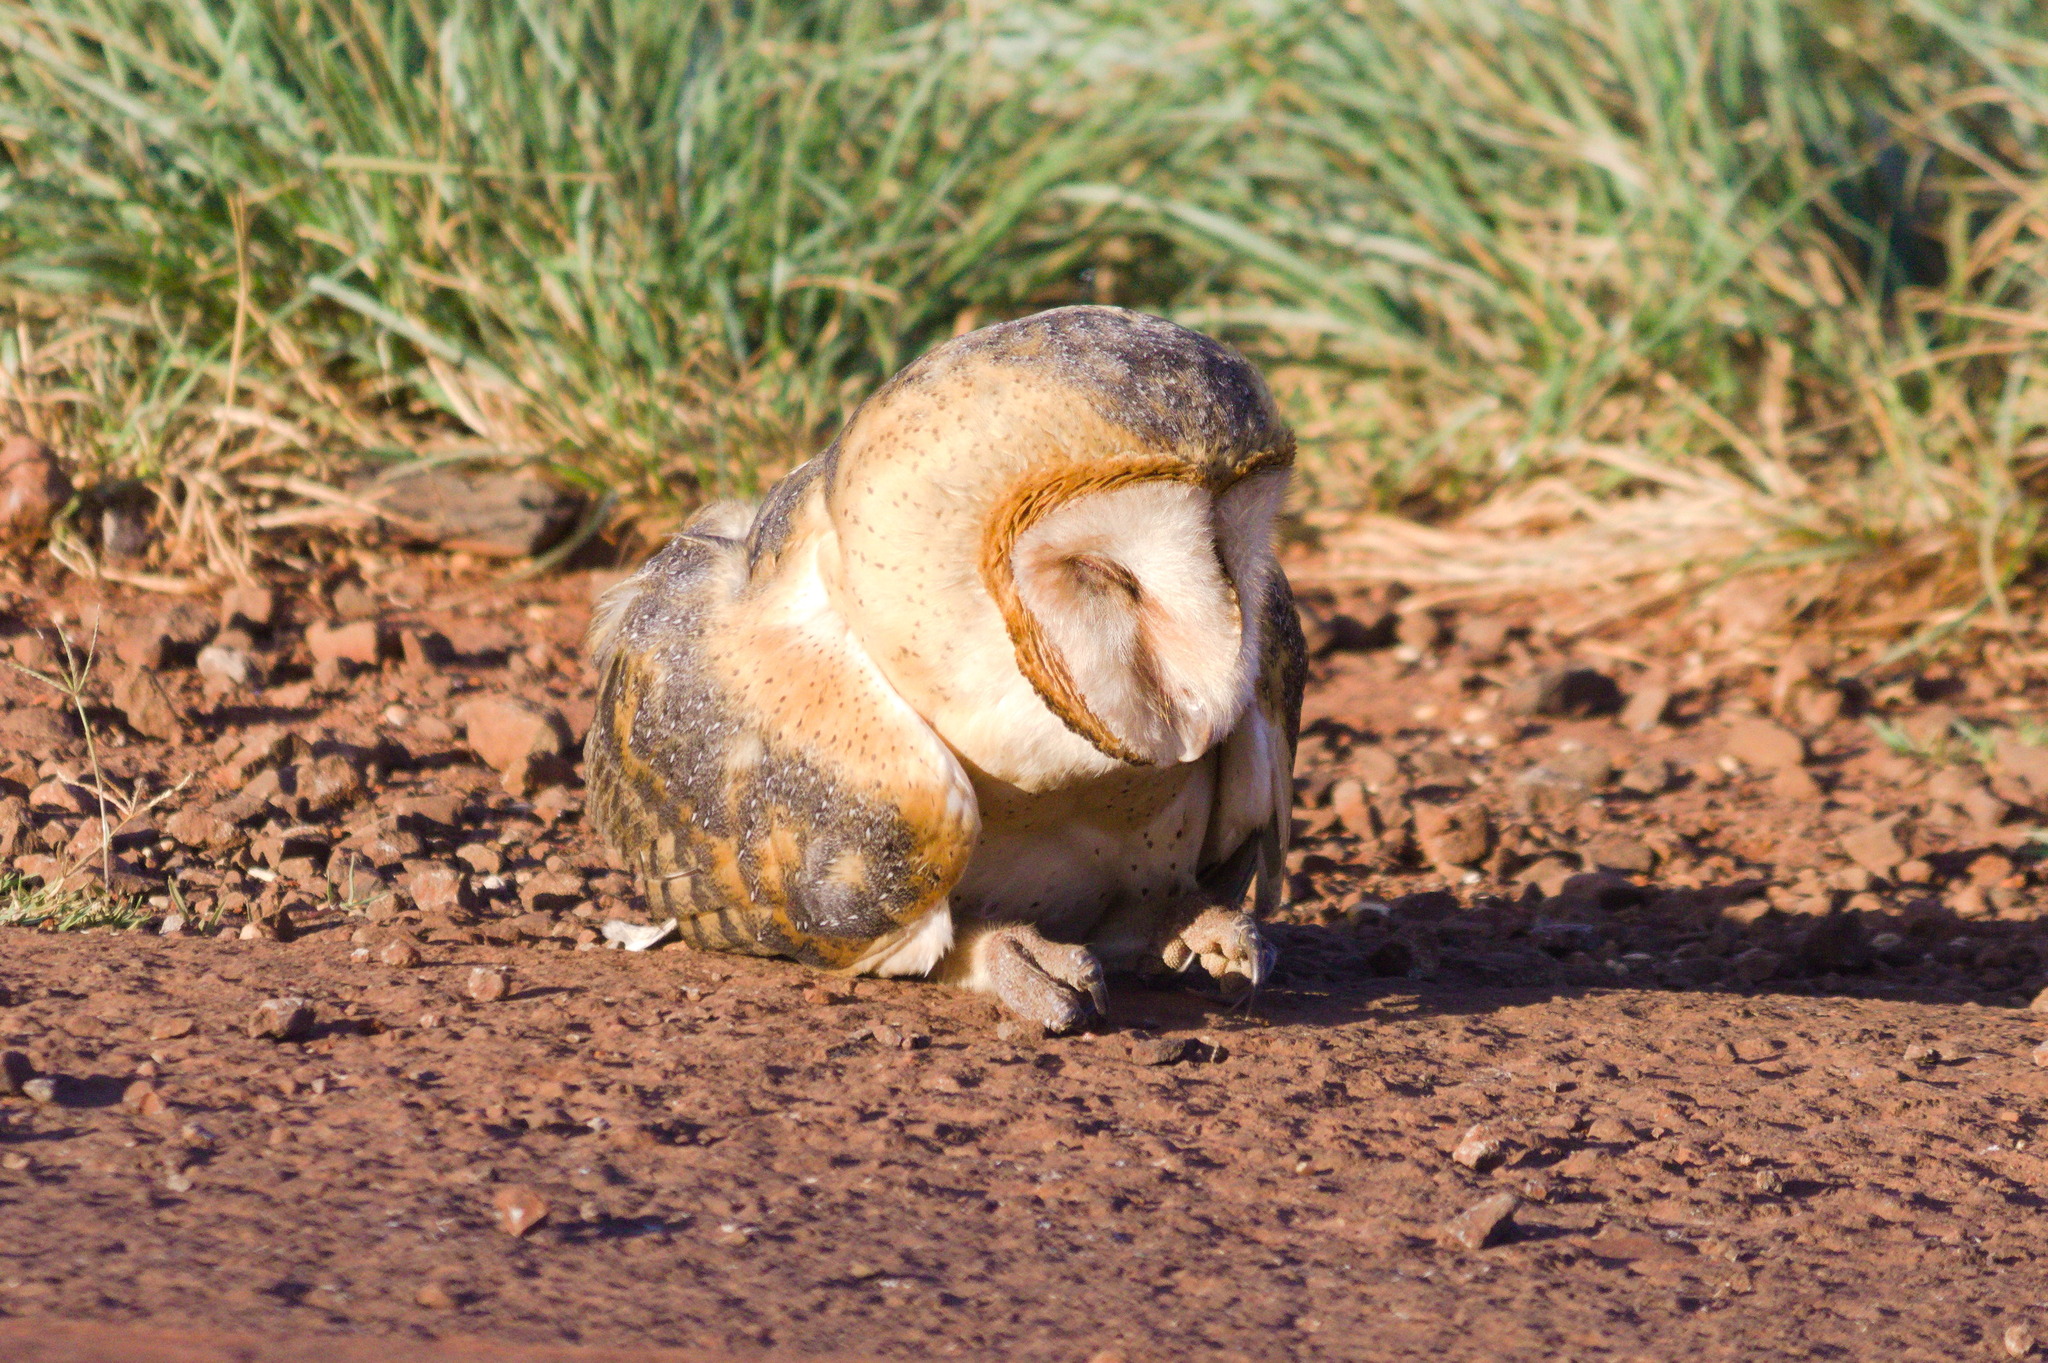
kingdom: Animalia
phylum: Chordata
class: Aves
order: Strigiformes
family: Tytonidae
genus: Tyto
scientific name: Tyto alba
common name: Barn owl
